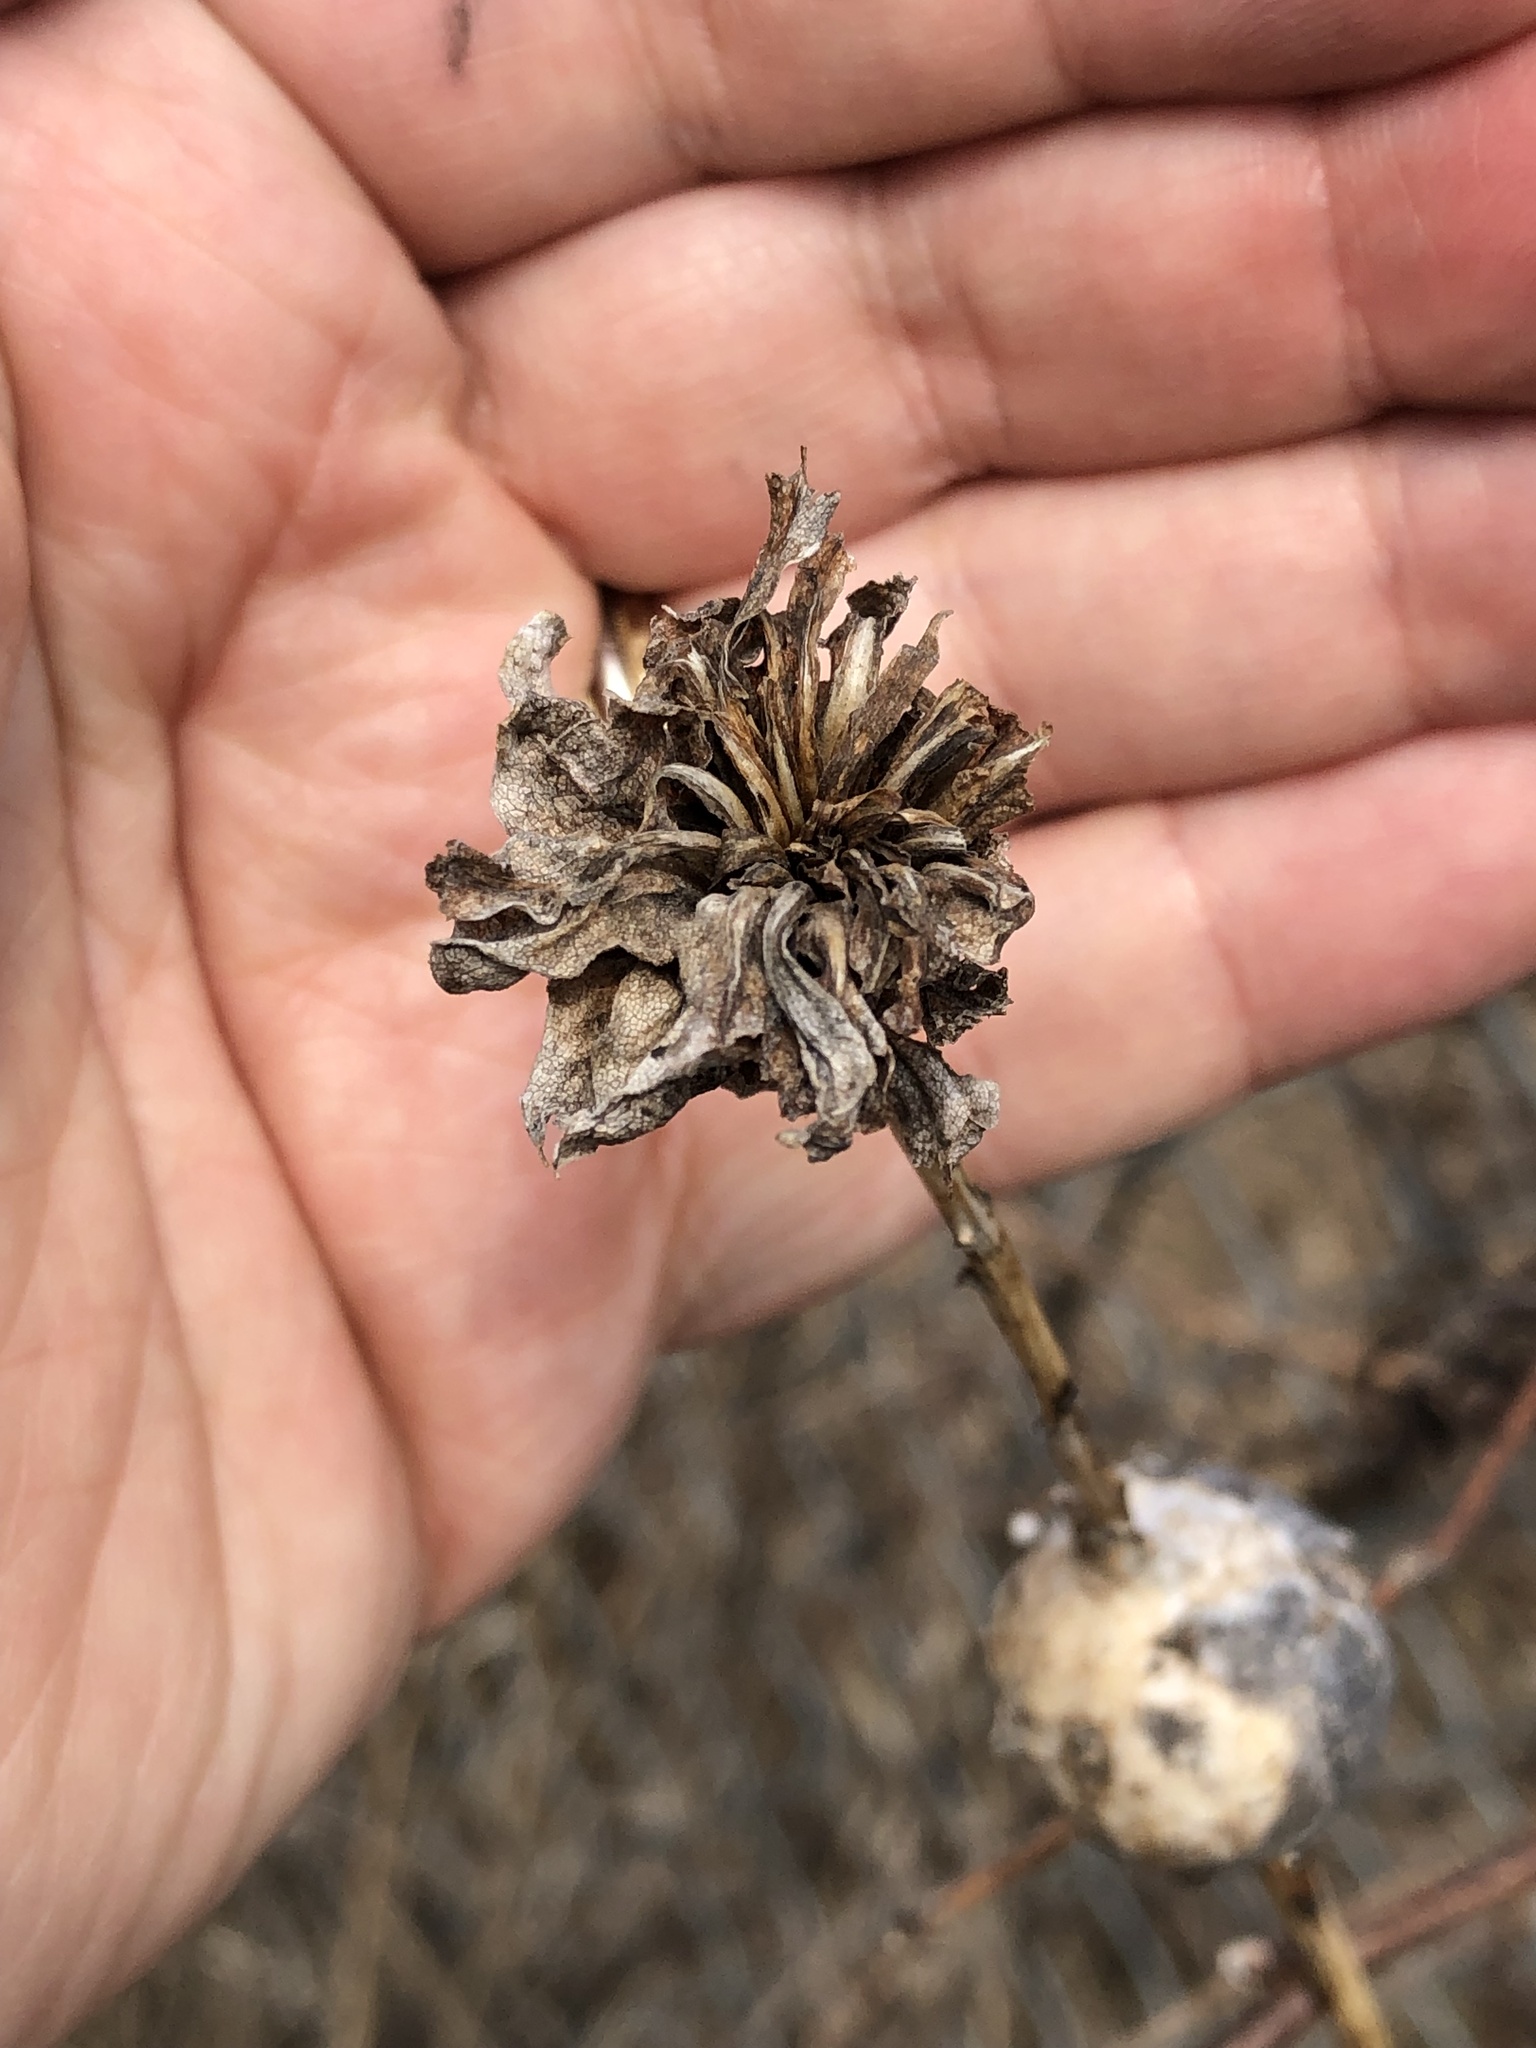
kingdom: Animalia
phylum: Arthropoda
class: Insecta
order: Diptera
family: Cecidomyiidae
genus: Rhopalomyia
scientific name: Rhopalomyia solidaginis
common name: Goldenrod bunch gall midge
